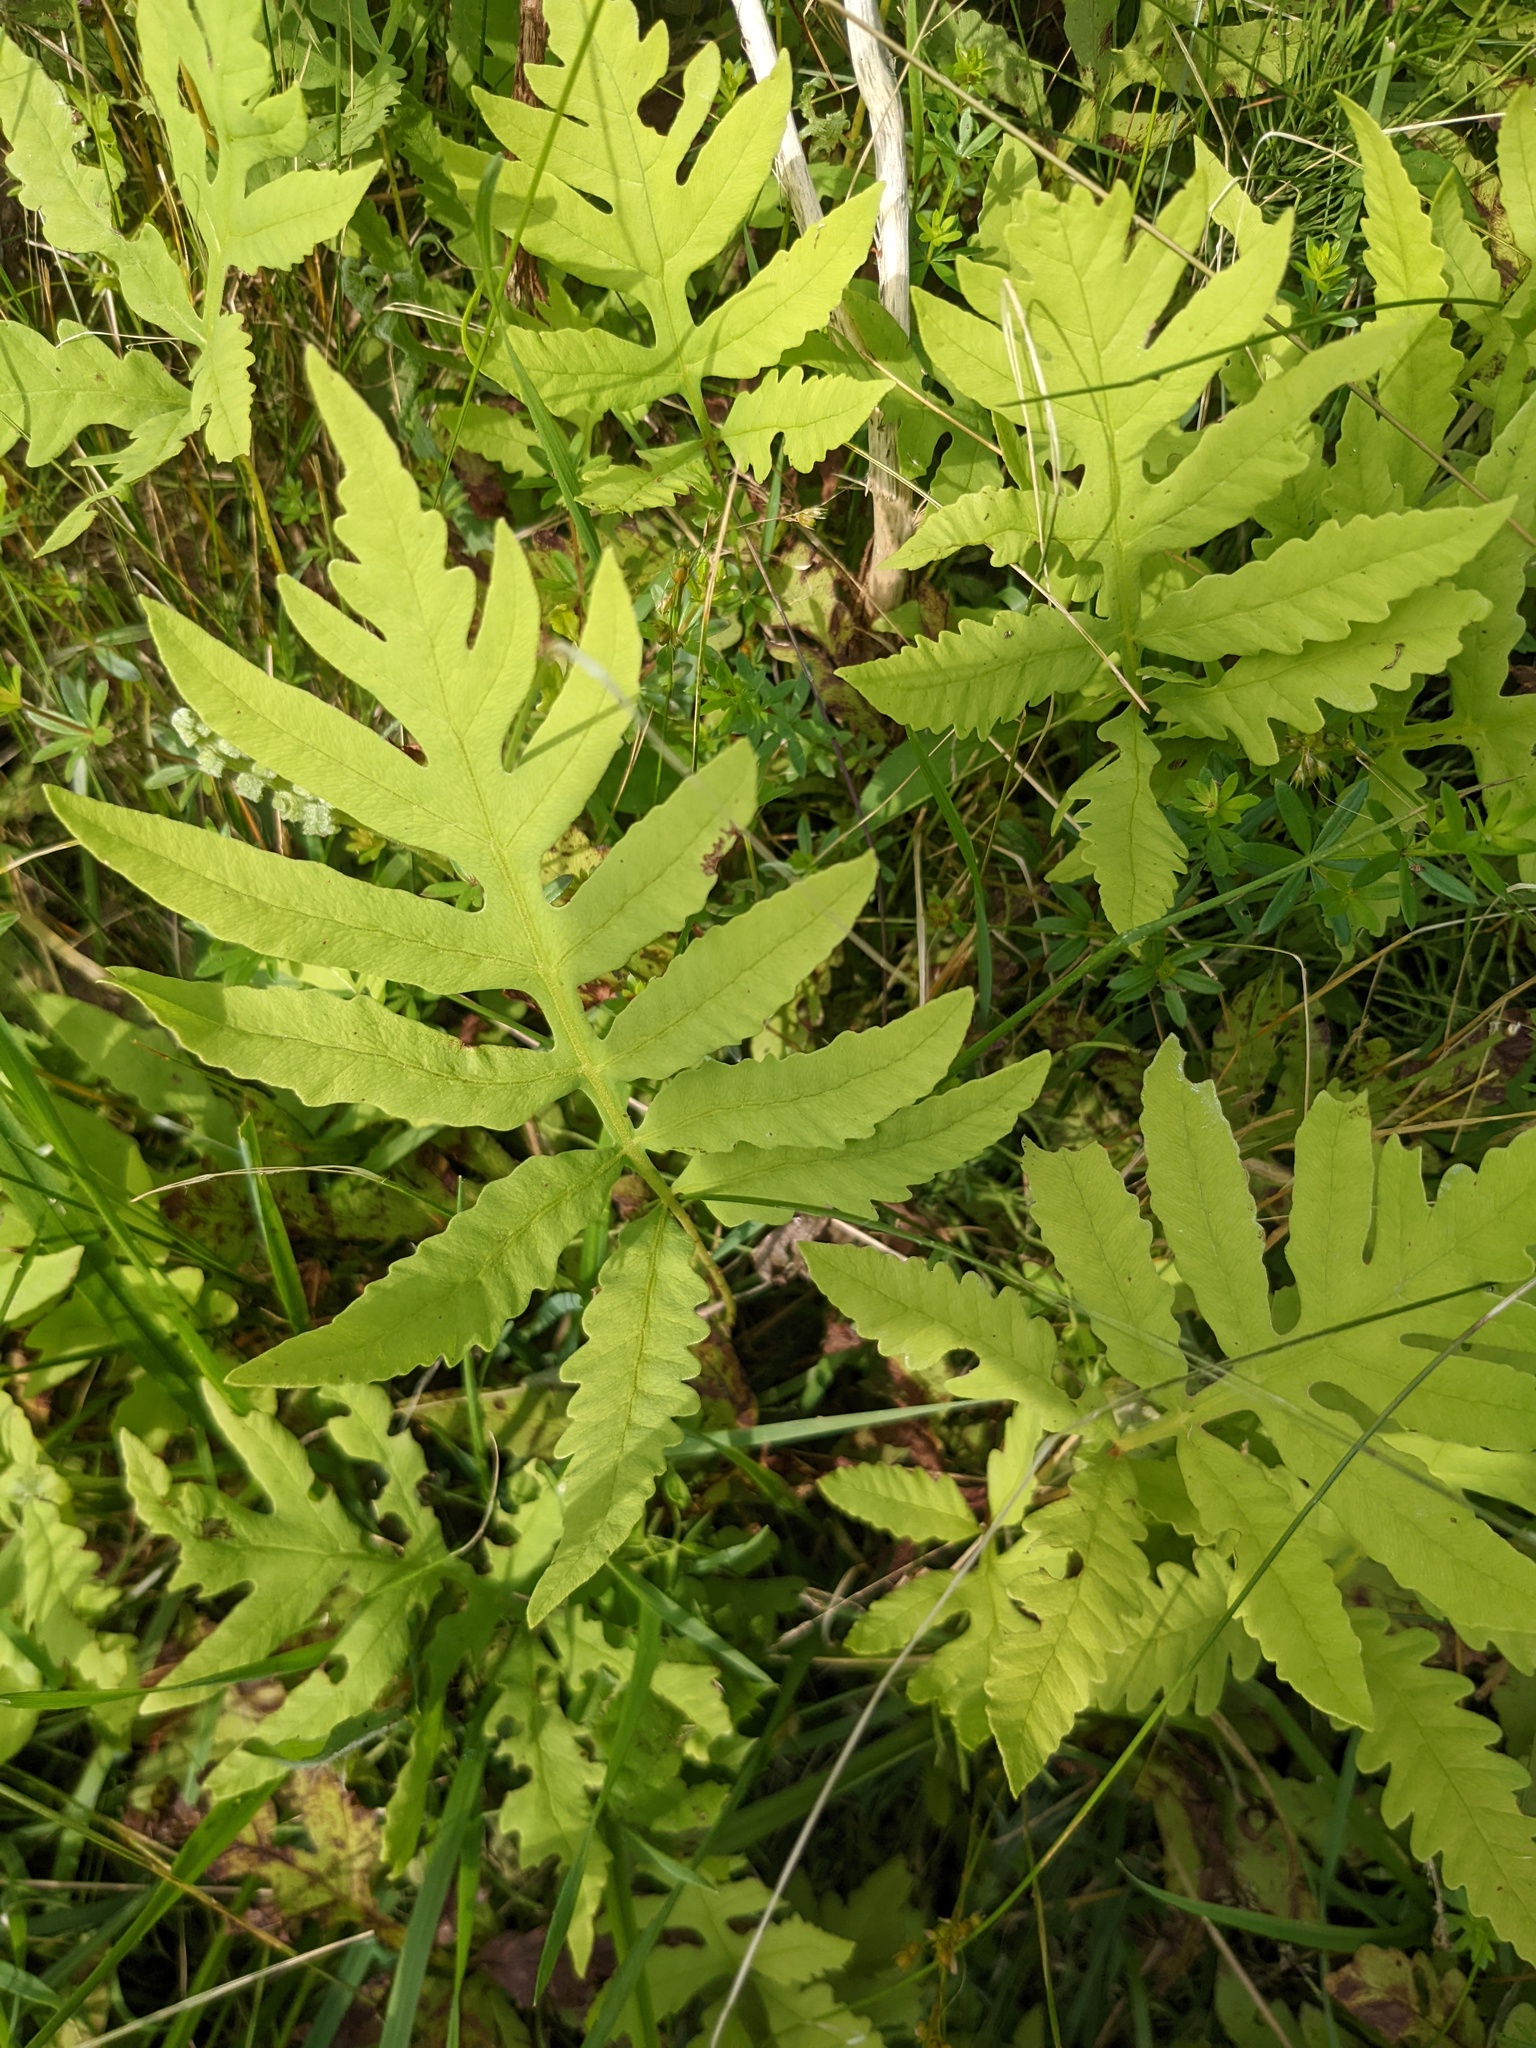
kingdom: Plantae
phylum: Tracheophyta
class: Polypodiopsida
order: Polypodiales
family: Onocleaceae
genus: Onoclea
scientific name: Onoclea sensibilis
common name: Sensitive fern
